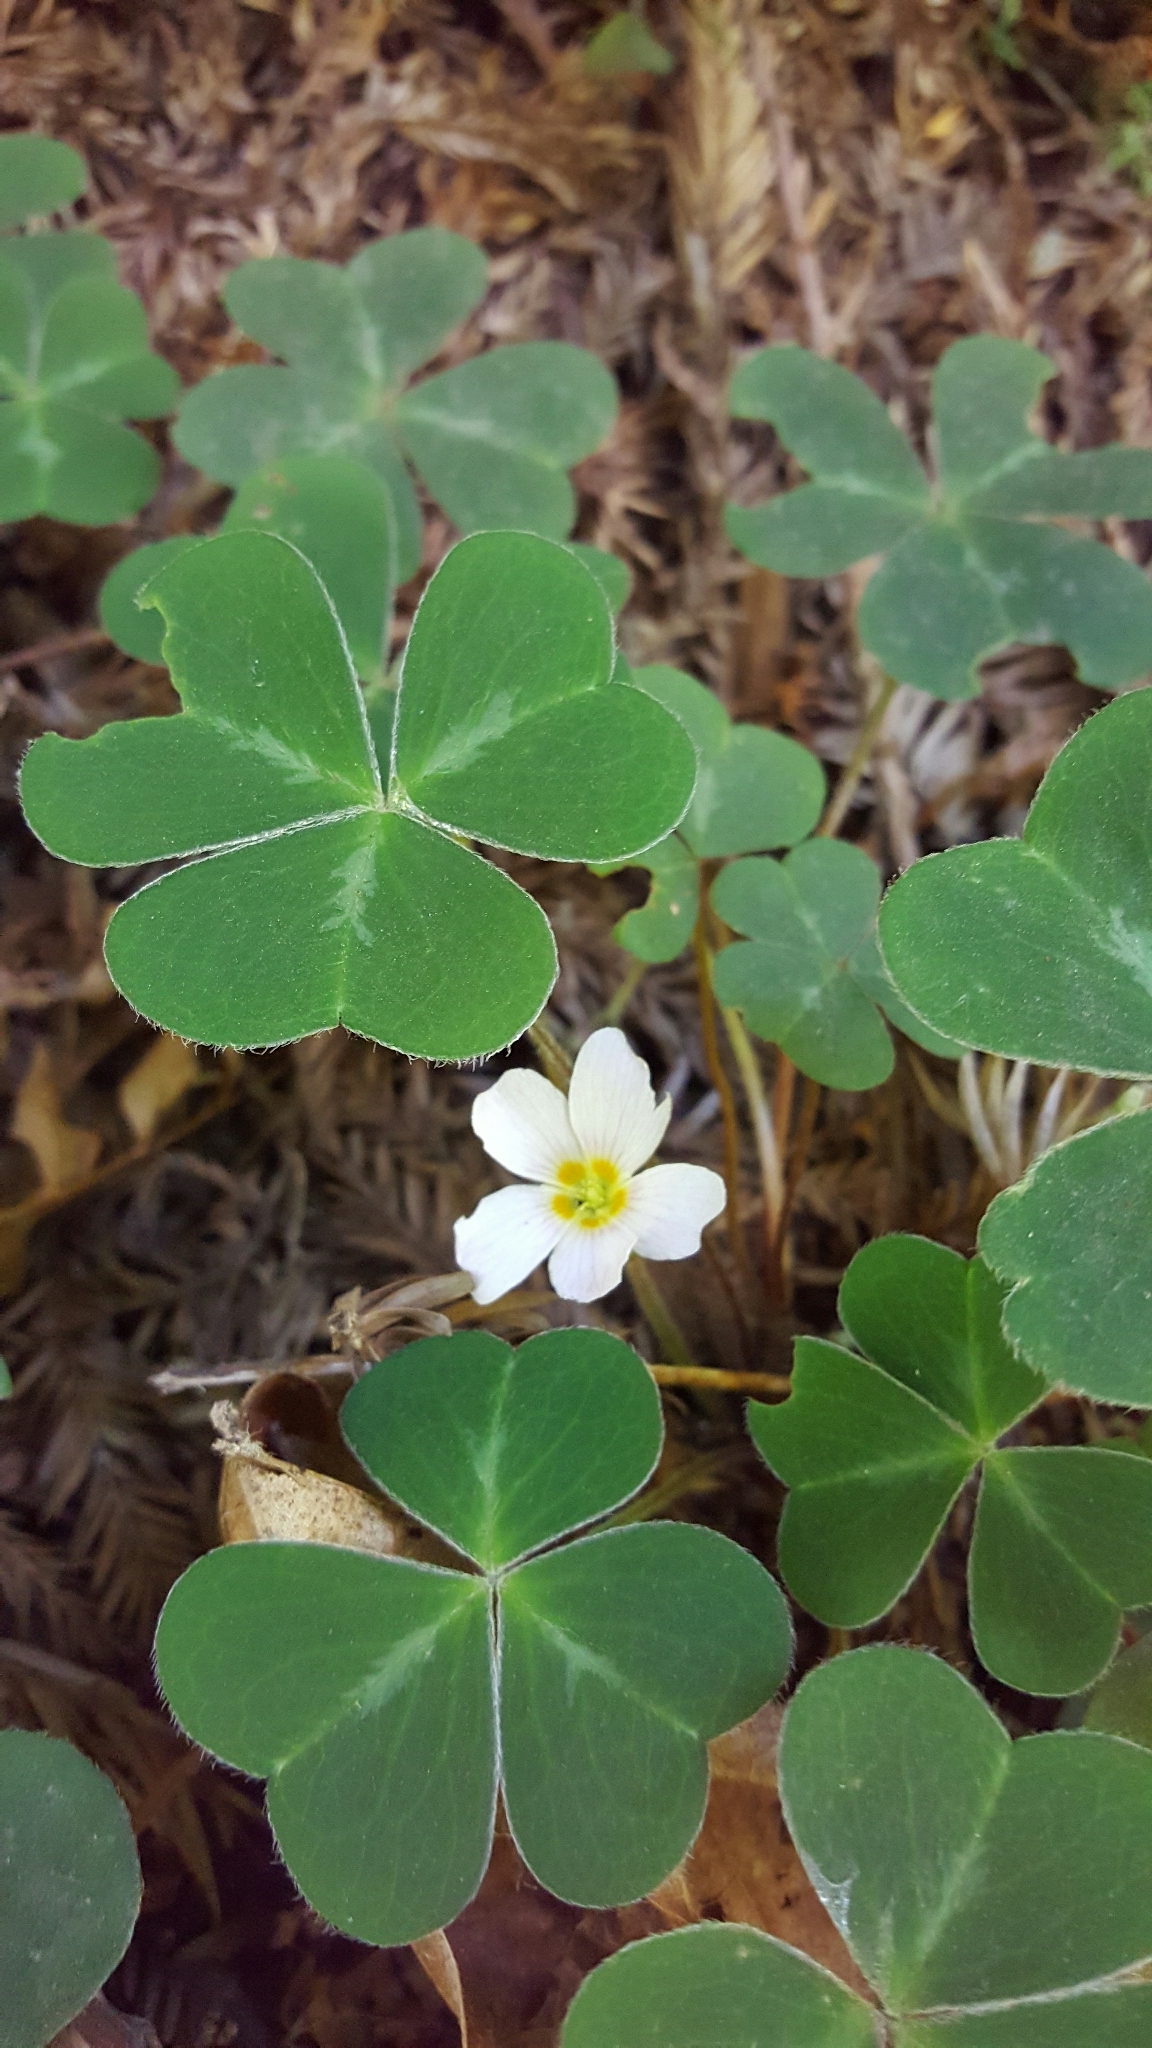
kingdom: Plantae
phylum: Tracheophyta
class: Magnoliopsida
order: Oxalidales
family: Oxalidaceae
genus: Oxalis
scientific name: Oxalis oregana
